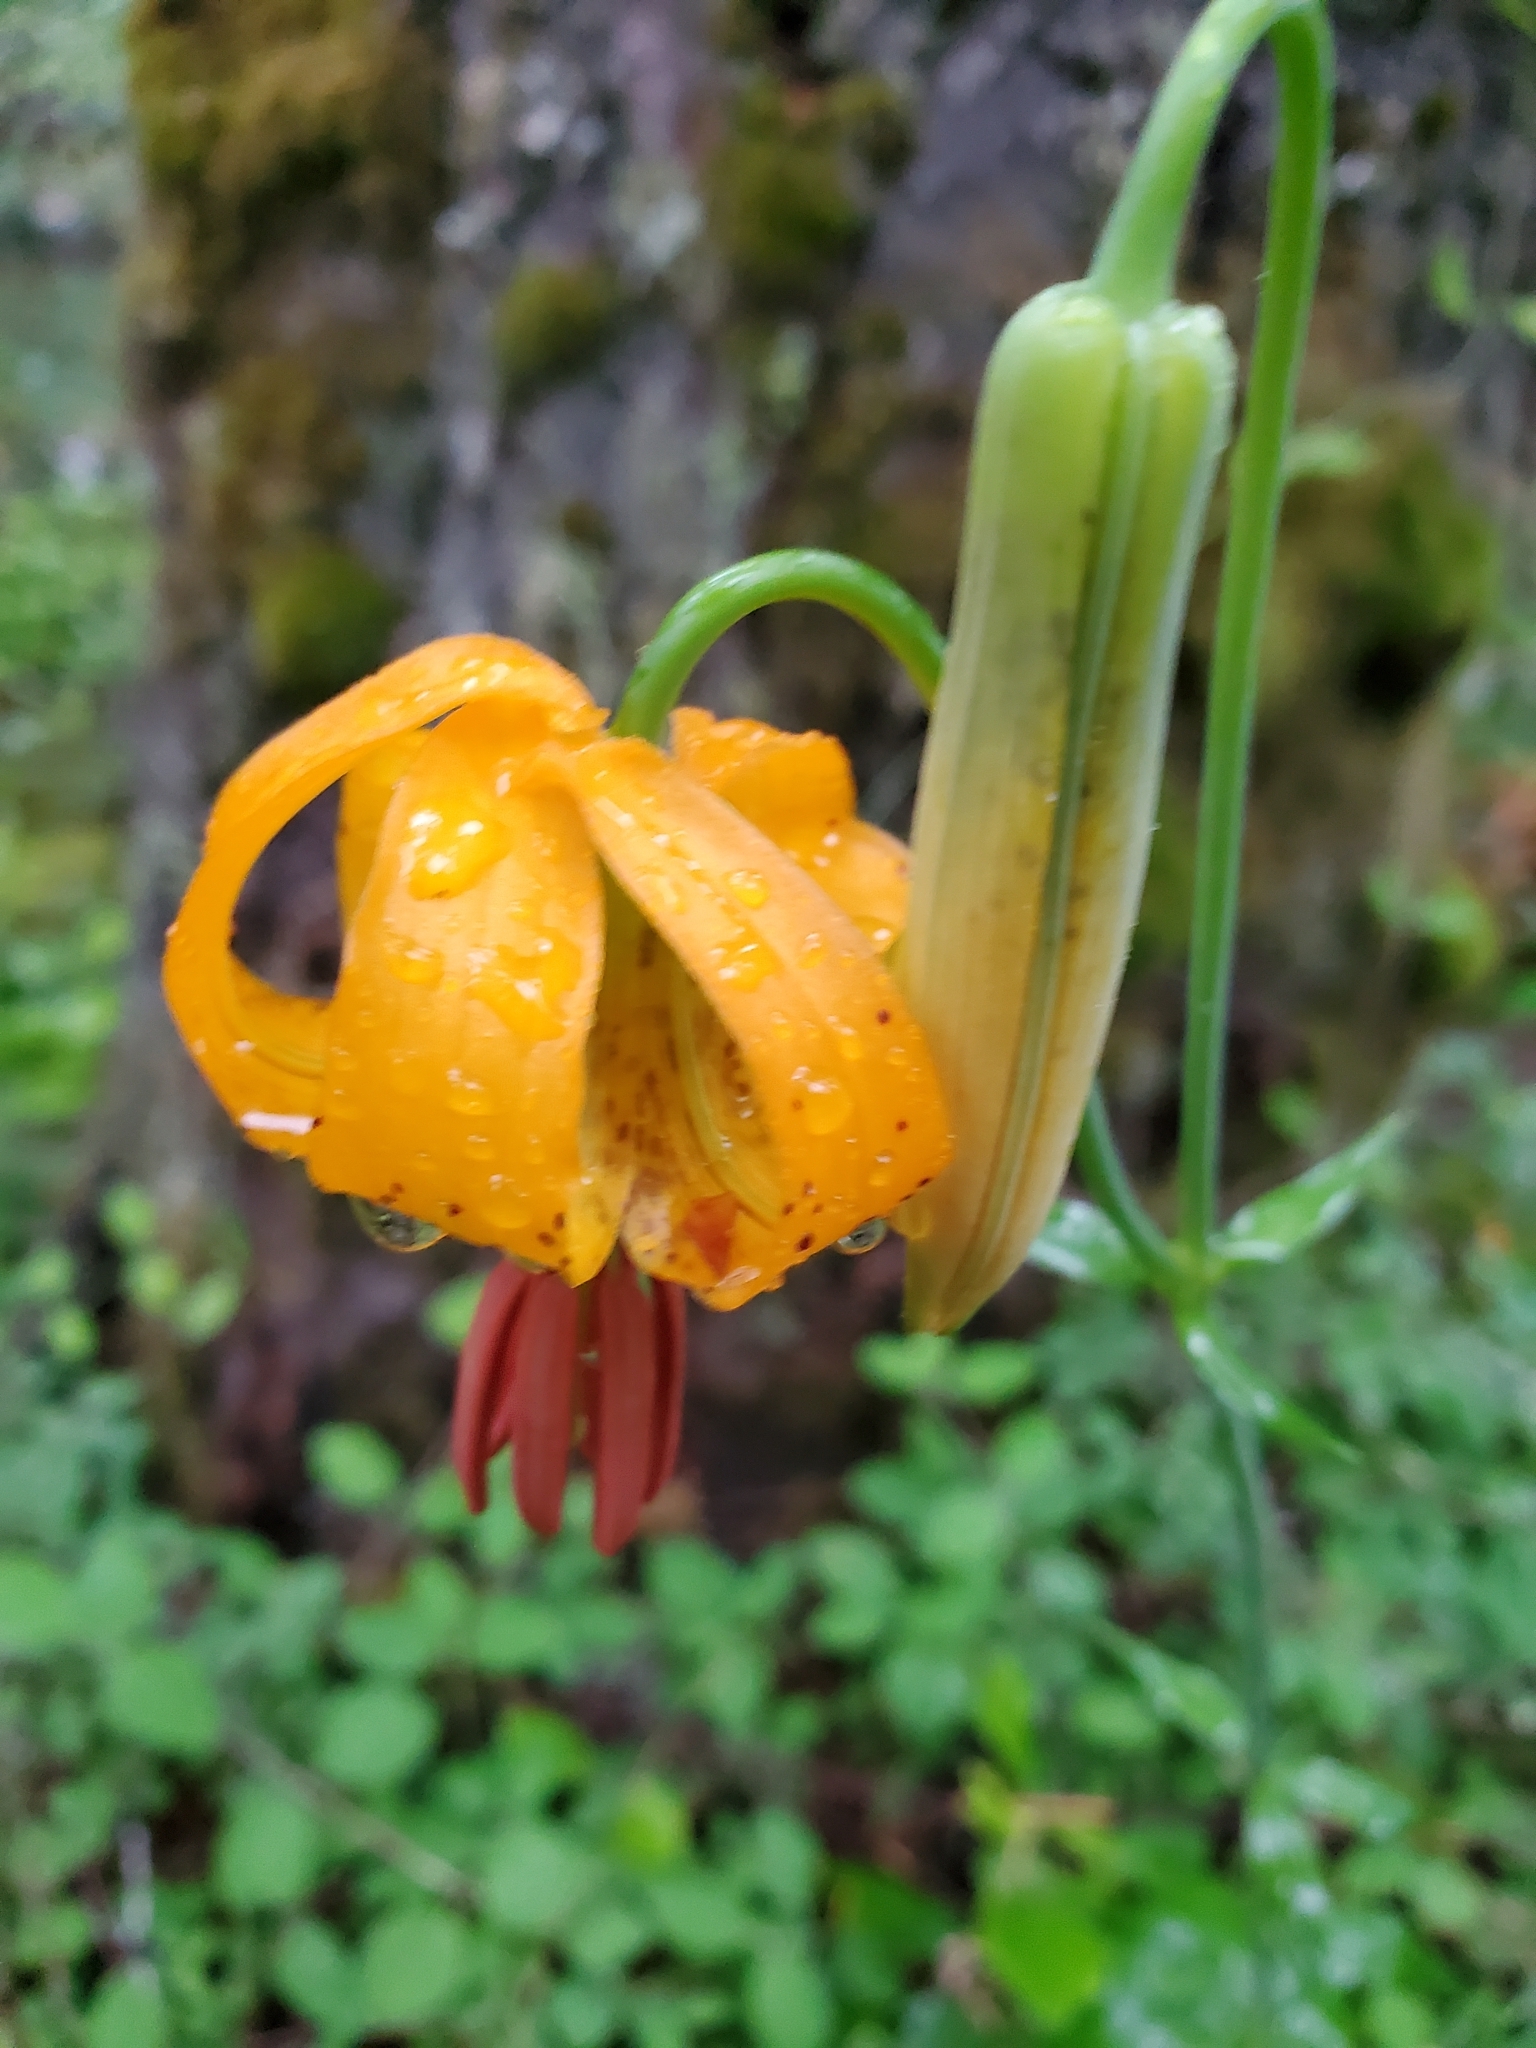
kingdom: Plantae
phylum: Tracheophyta
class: Liliopsida
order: Liliales
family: Liliaceae
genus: Lilium
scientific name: Lilium columbianum
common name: Columbia lily
